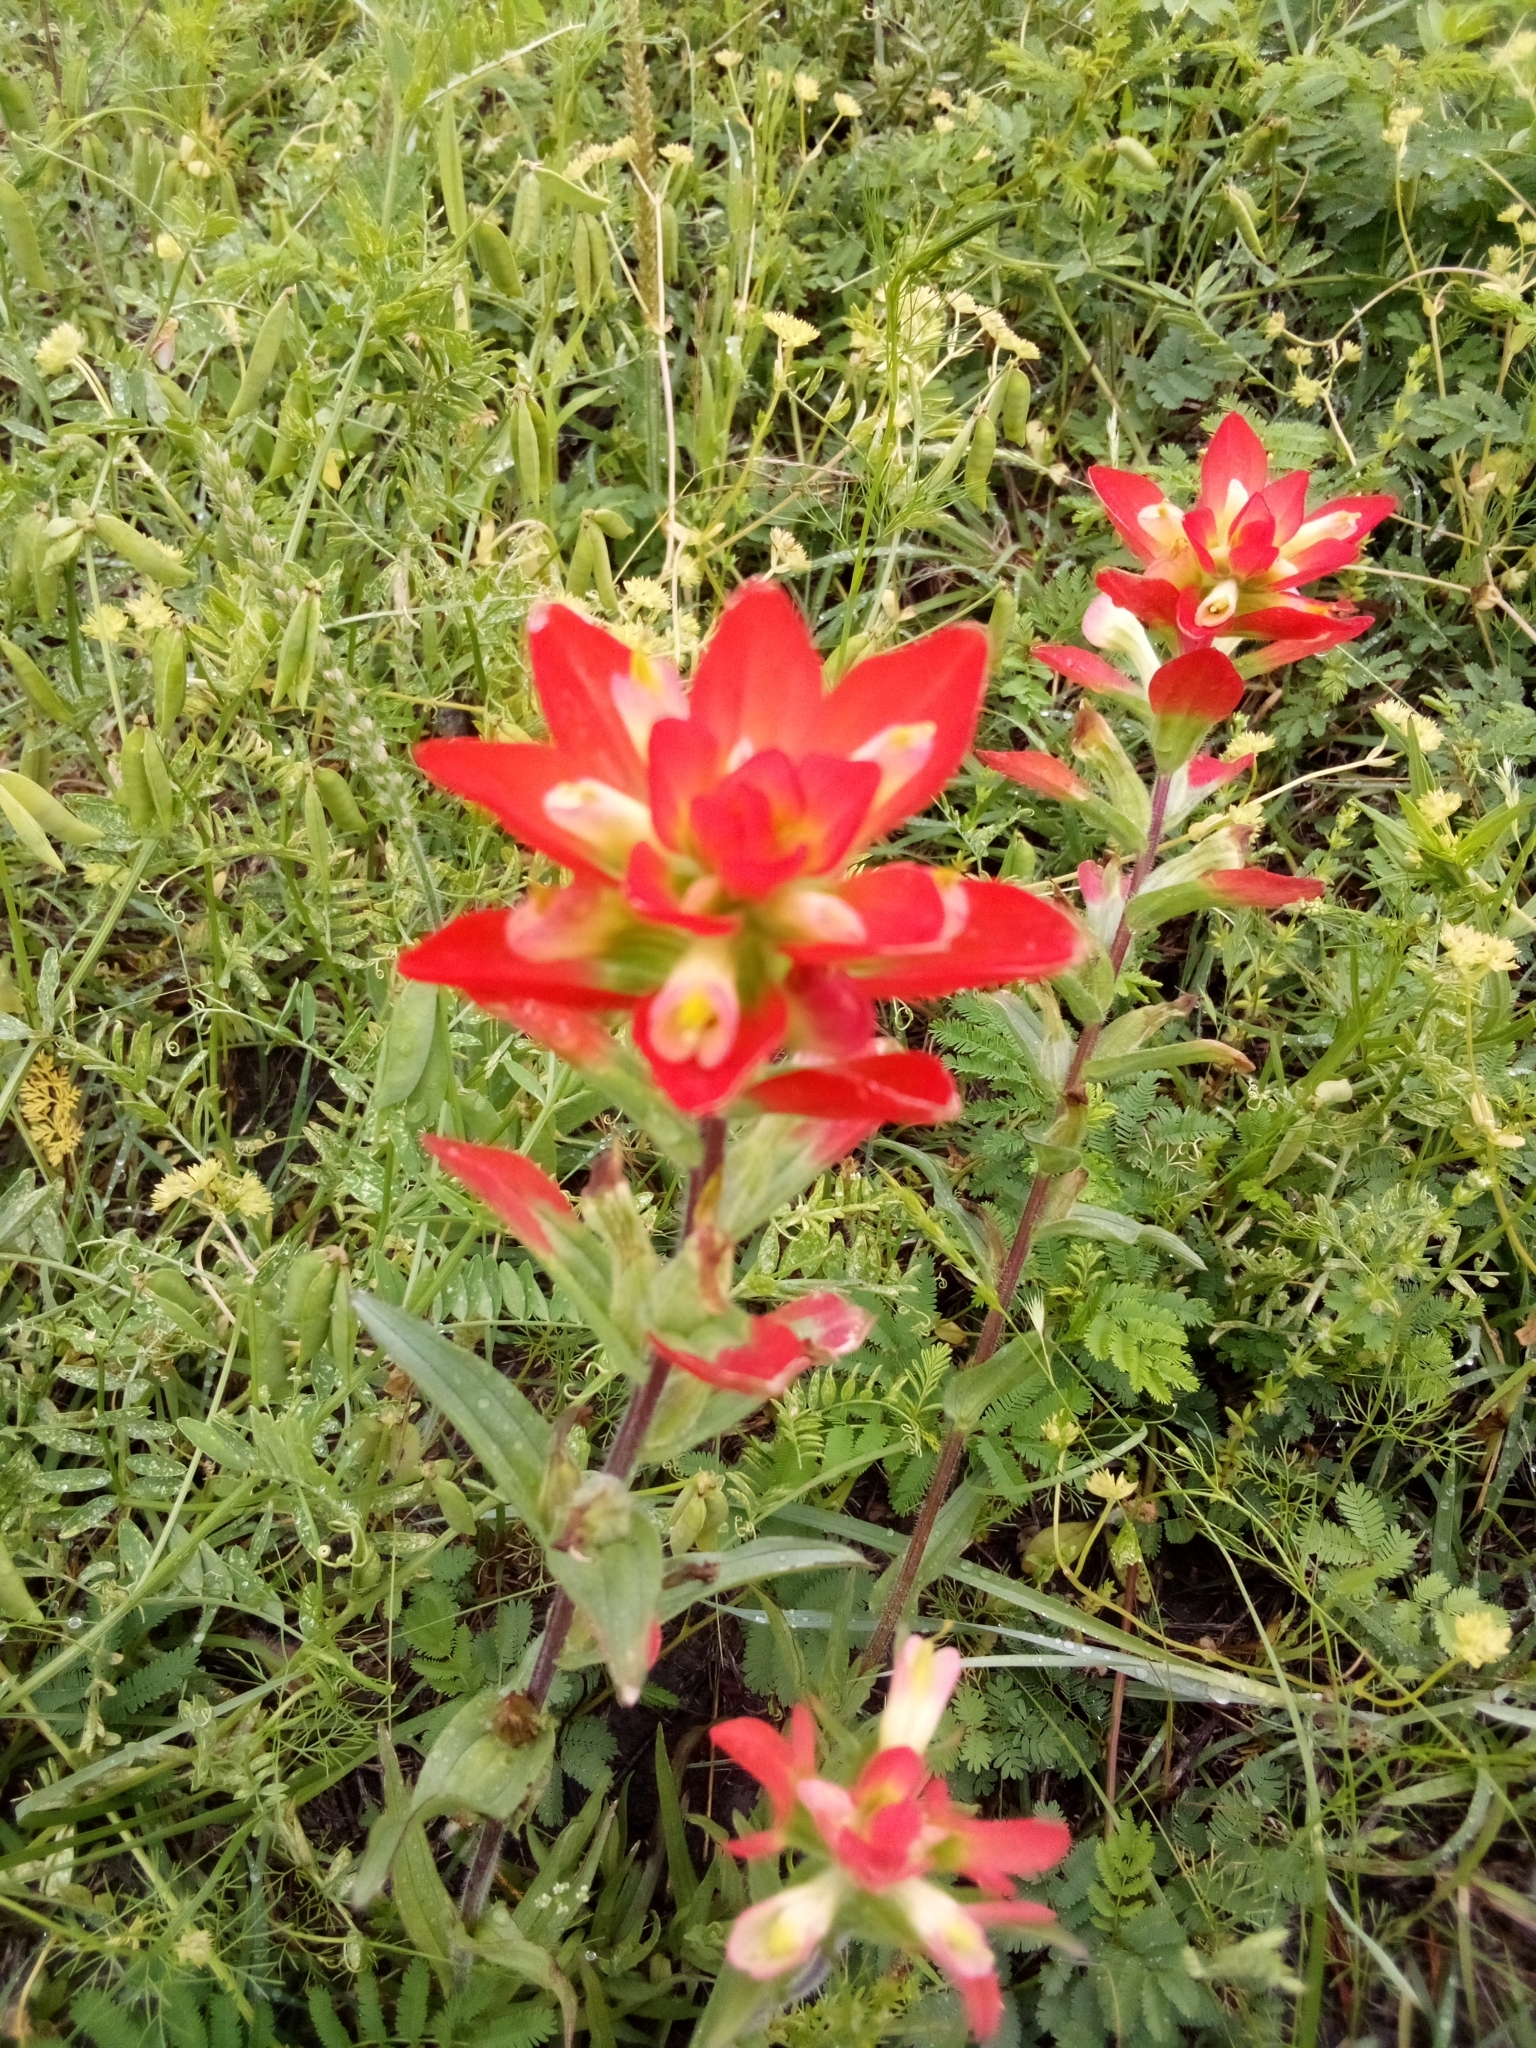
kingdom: Plantae
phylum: Tracheophyta
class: Magnoliopsida
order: Lamiales
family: Orobanchaceae
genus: Castilleja
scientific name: Castilleja indivisa
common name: Texas paintbrush
